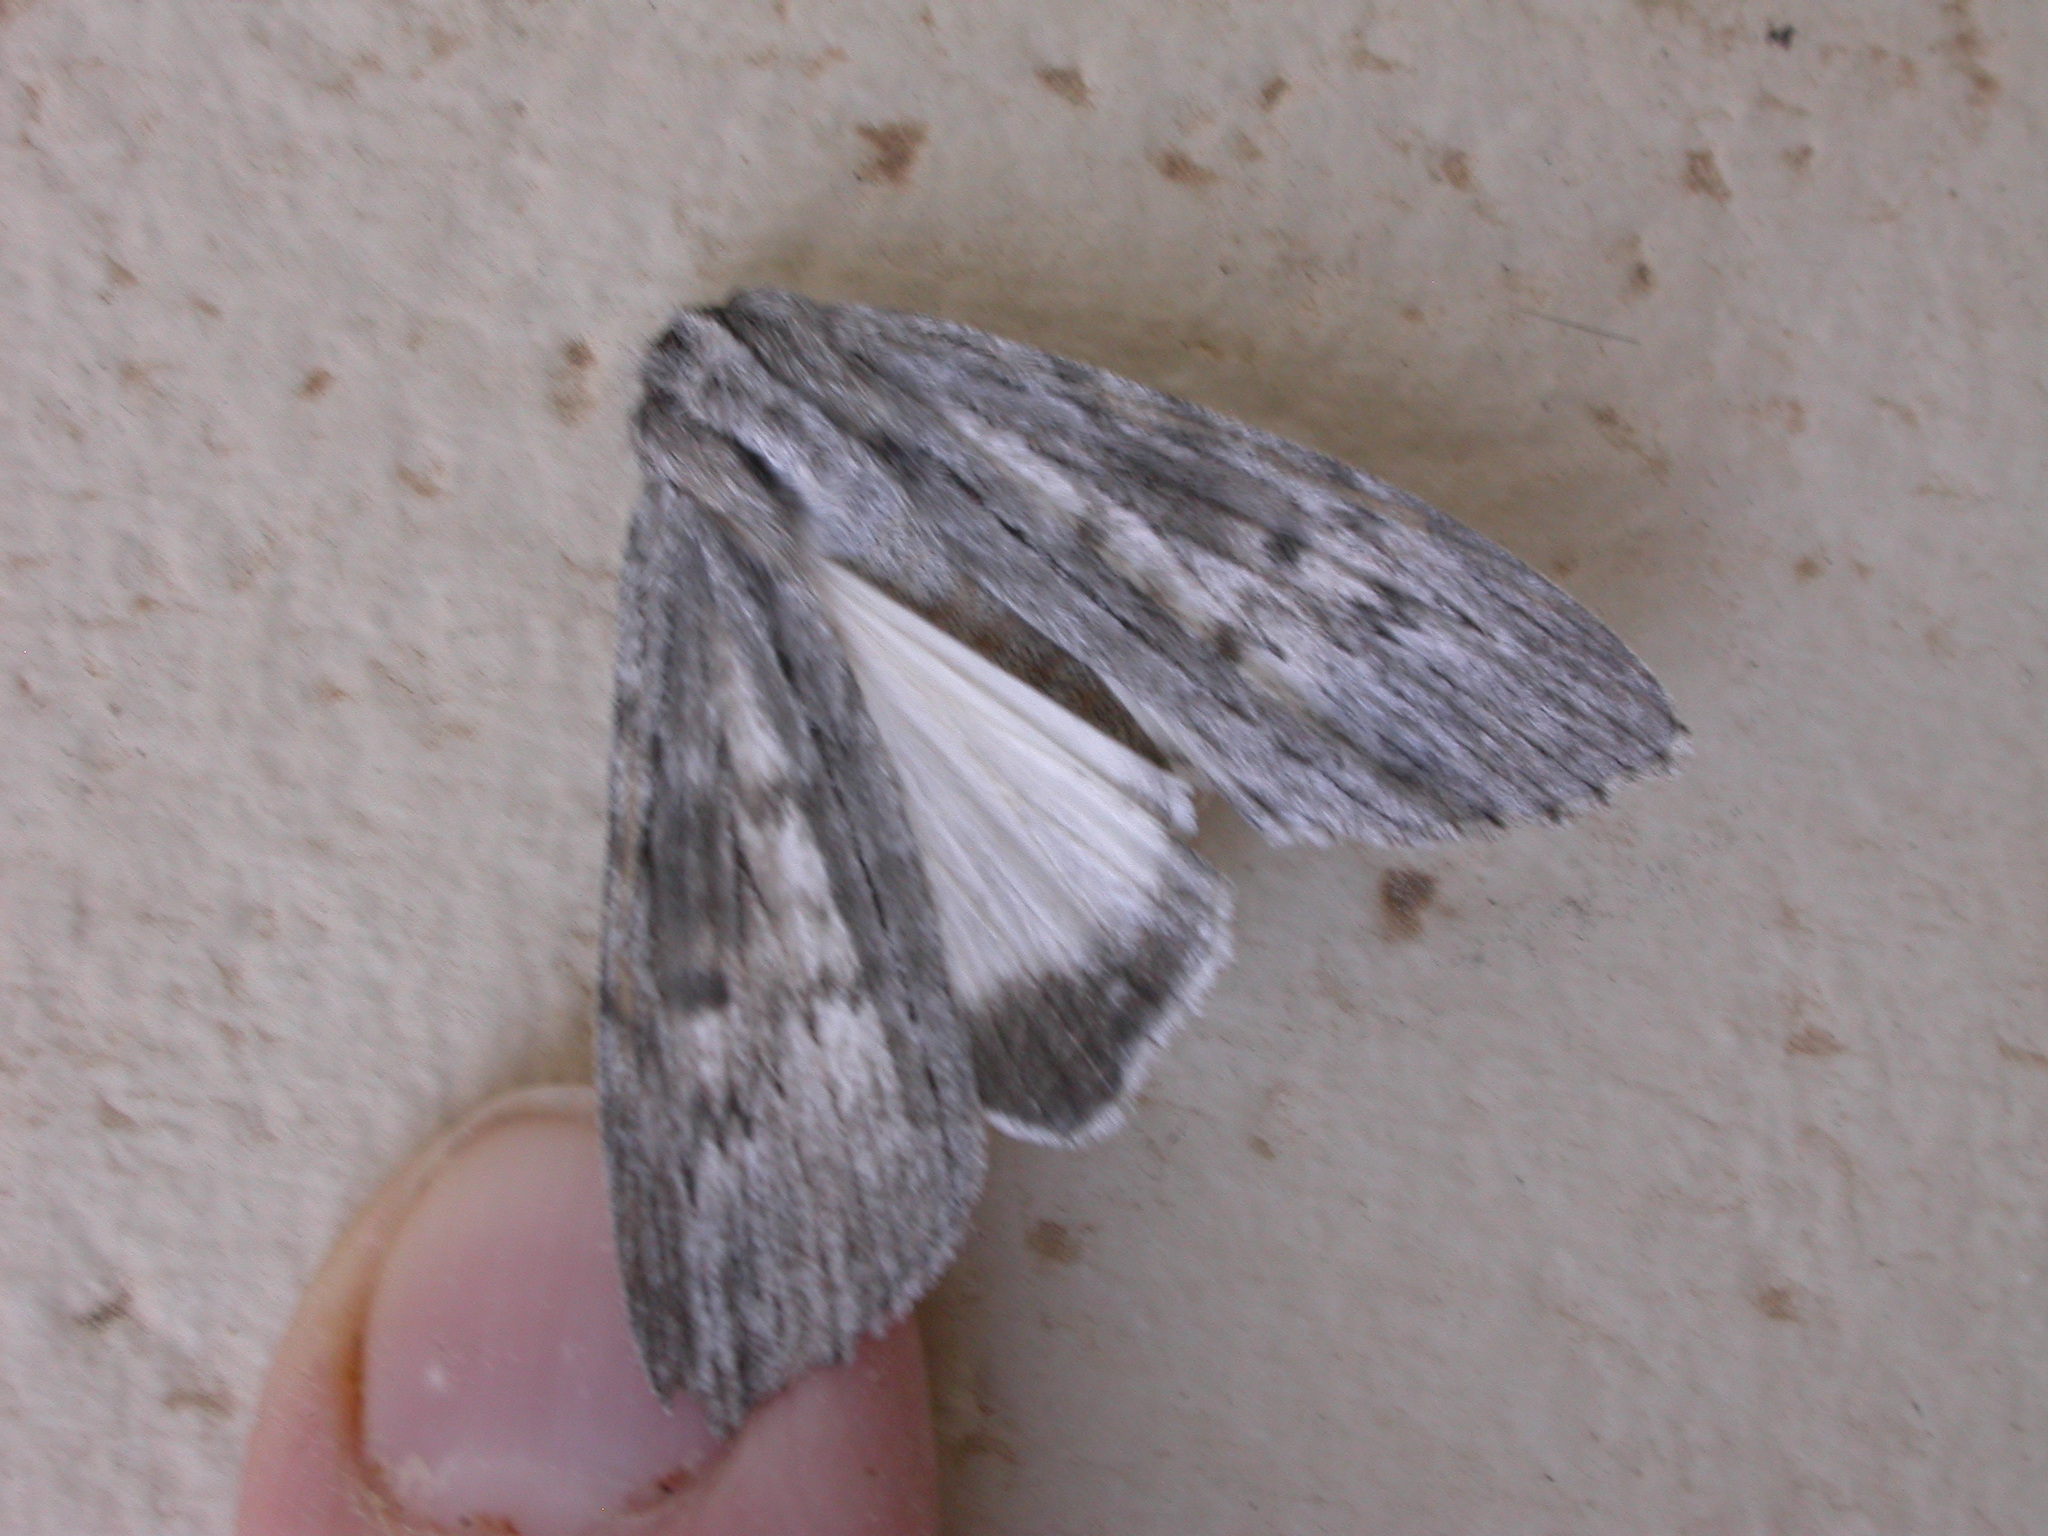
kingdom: Animalia
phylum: Arthropoda
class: Insecta
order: Lepidoptera
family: Geometridae
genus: Capusa
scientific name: Capusa senilis
